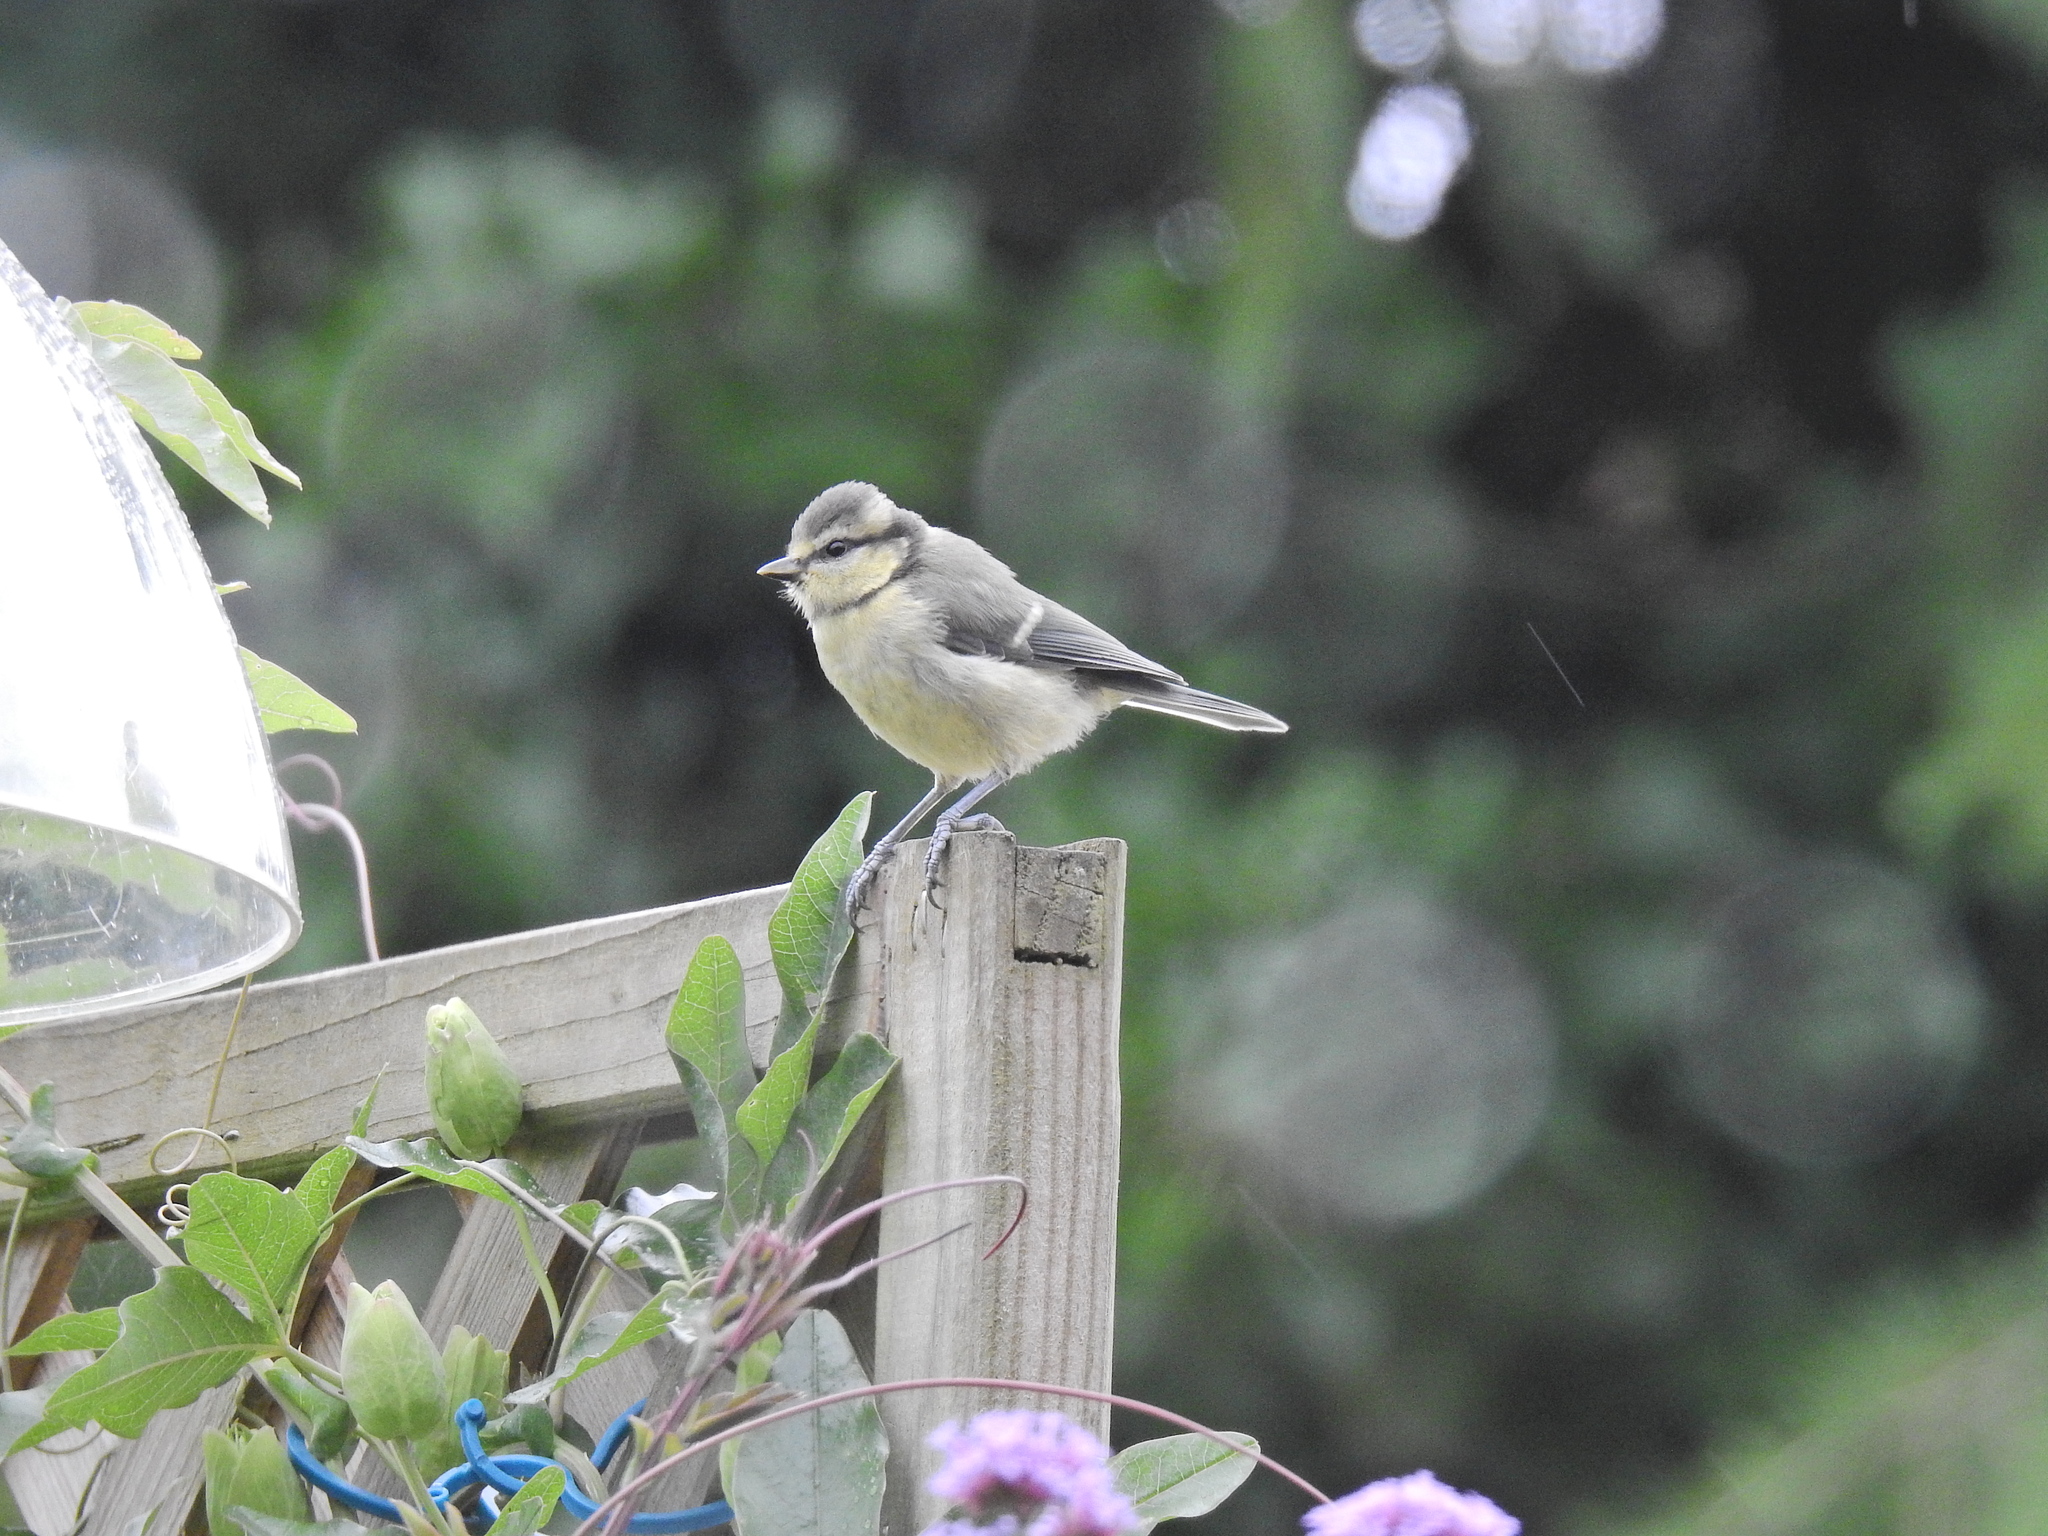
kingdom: Animalia
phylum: Chordata
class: Aves
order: Passeriformes
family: Paridae
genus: Cyanistes
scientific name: Cyanistes caeruleus
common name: Eurasian blue tit
